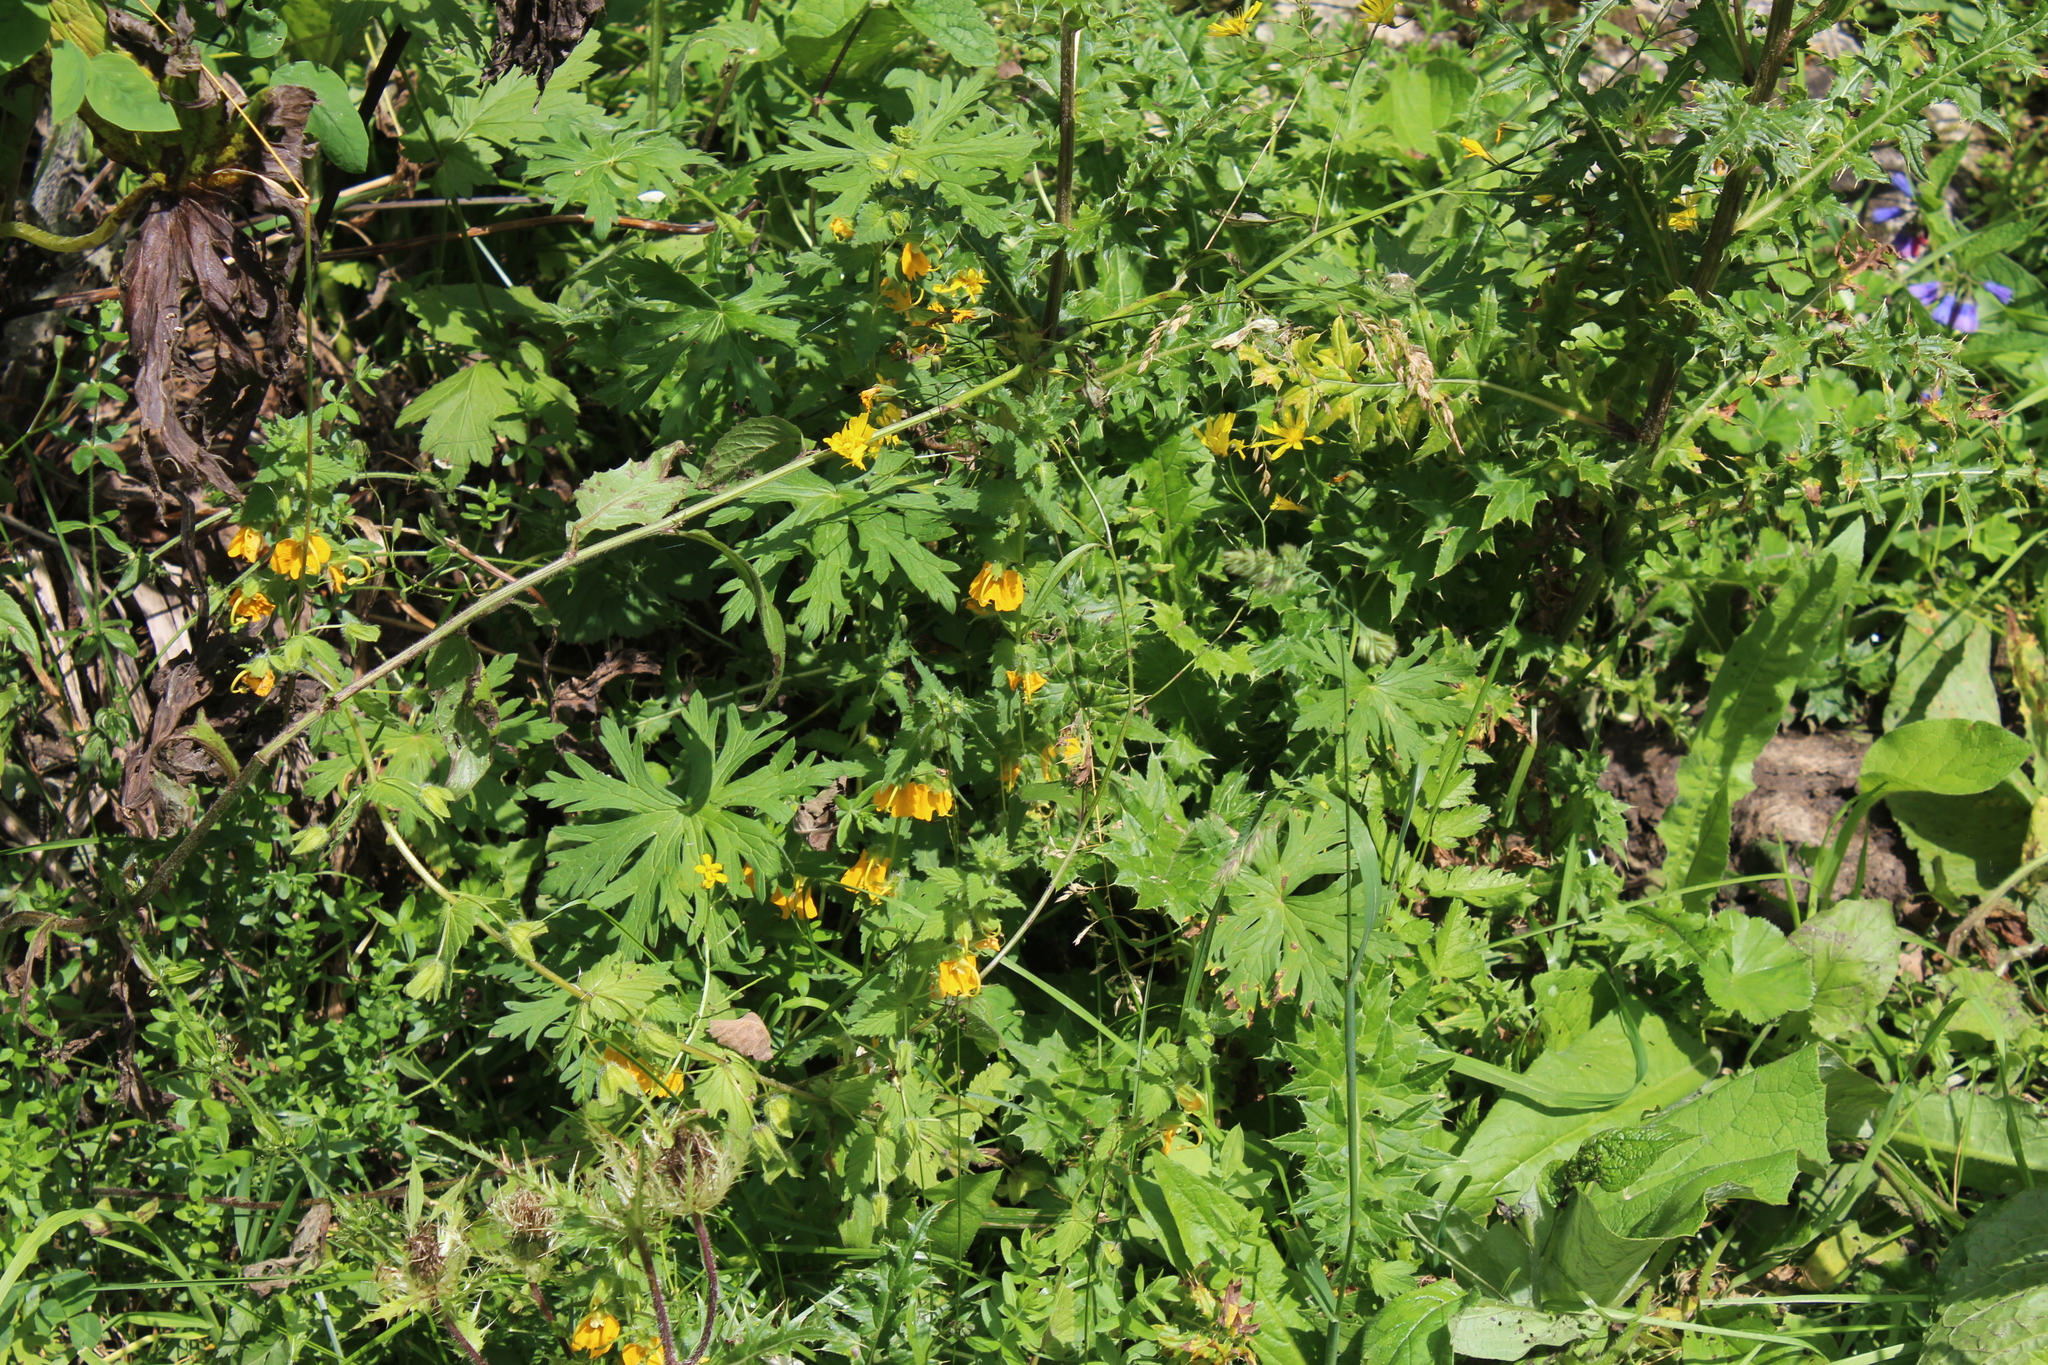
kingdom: Plantae
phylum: Tracheophyta
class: Magnoliopsida
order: Lamiales
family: Orobanchaceae
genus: Rhynchocorys
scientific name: Rhynchocorys orientalis
